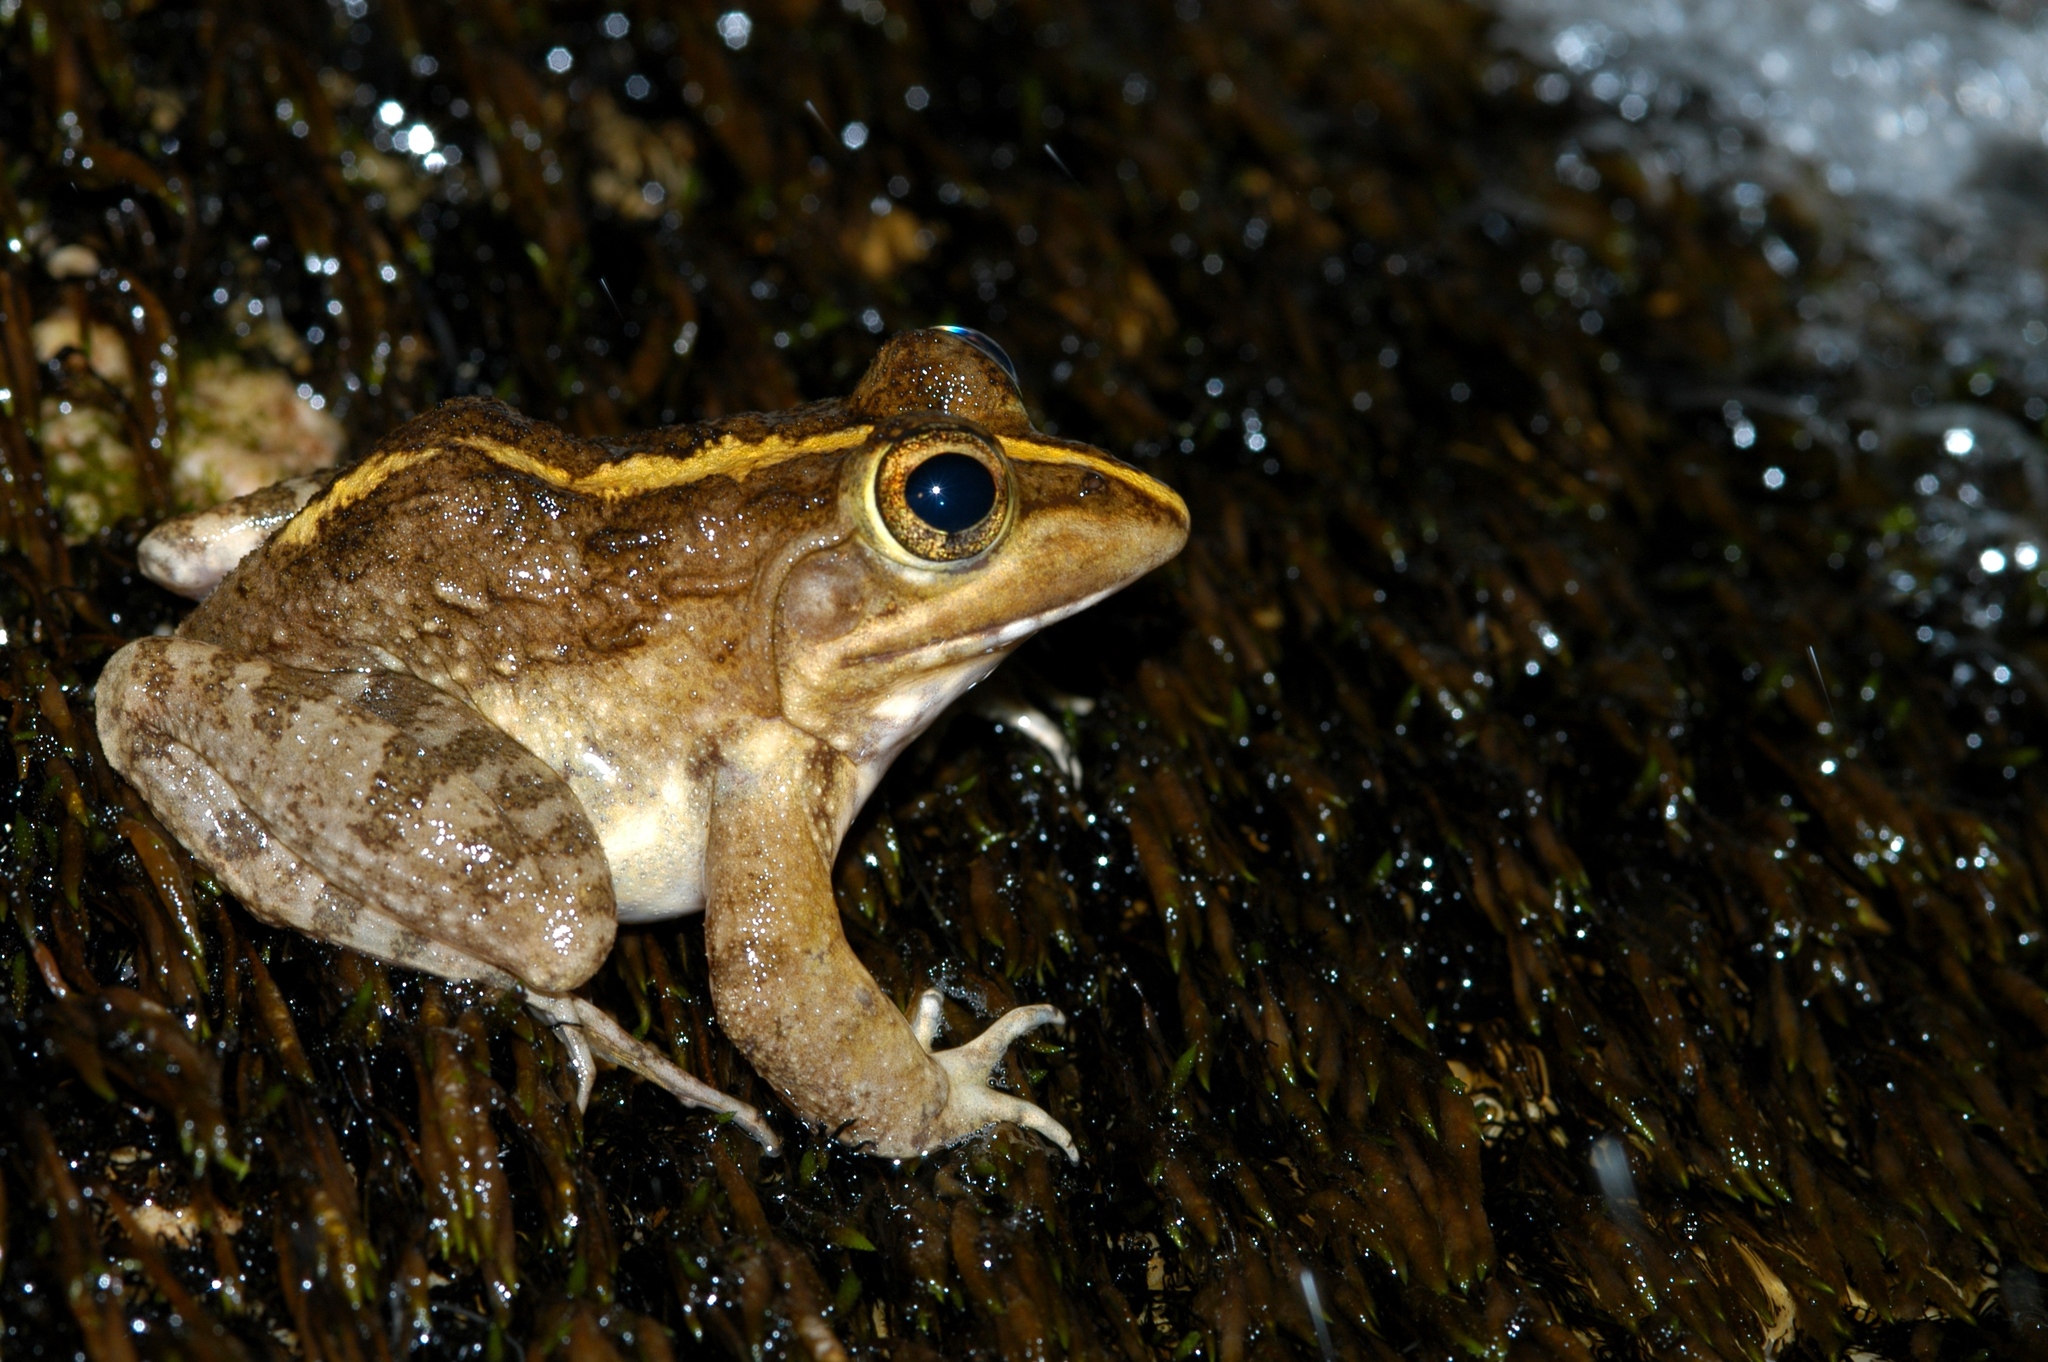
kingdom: Animalia
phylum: Chordata
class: Amphibia
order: Anura
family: Pyxicephalidae
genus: Amietia
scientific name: Amietia fuscigula
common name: Cape rana
